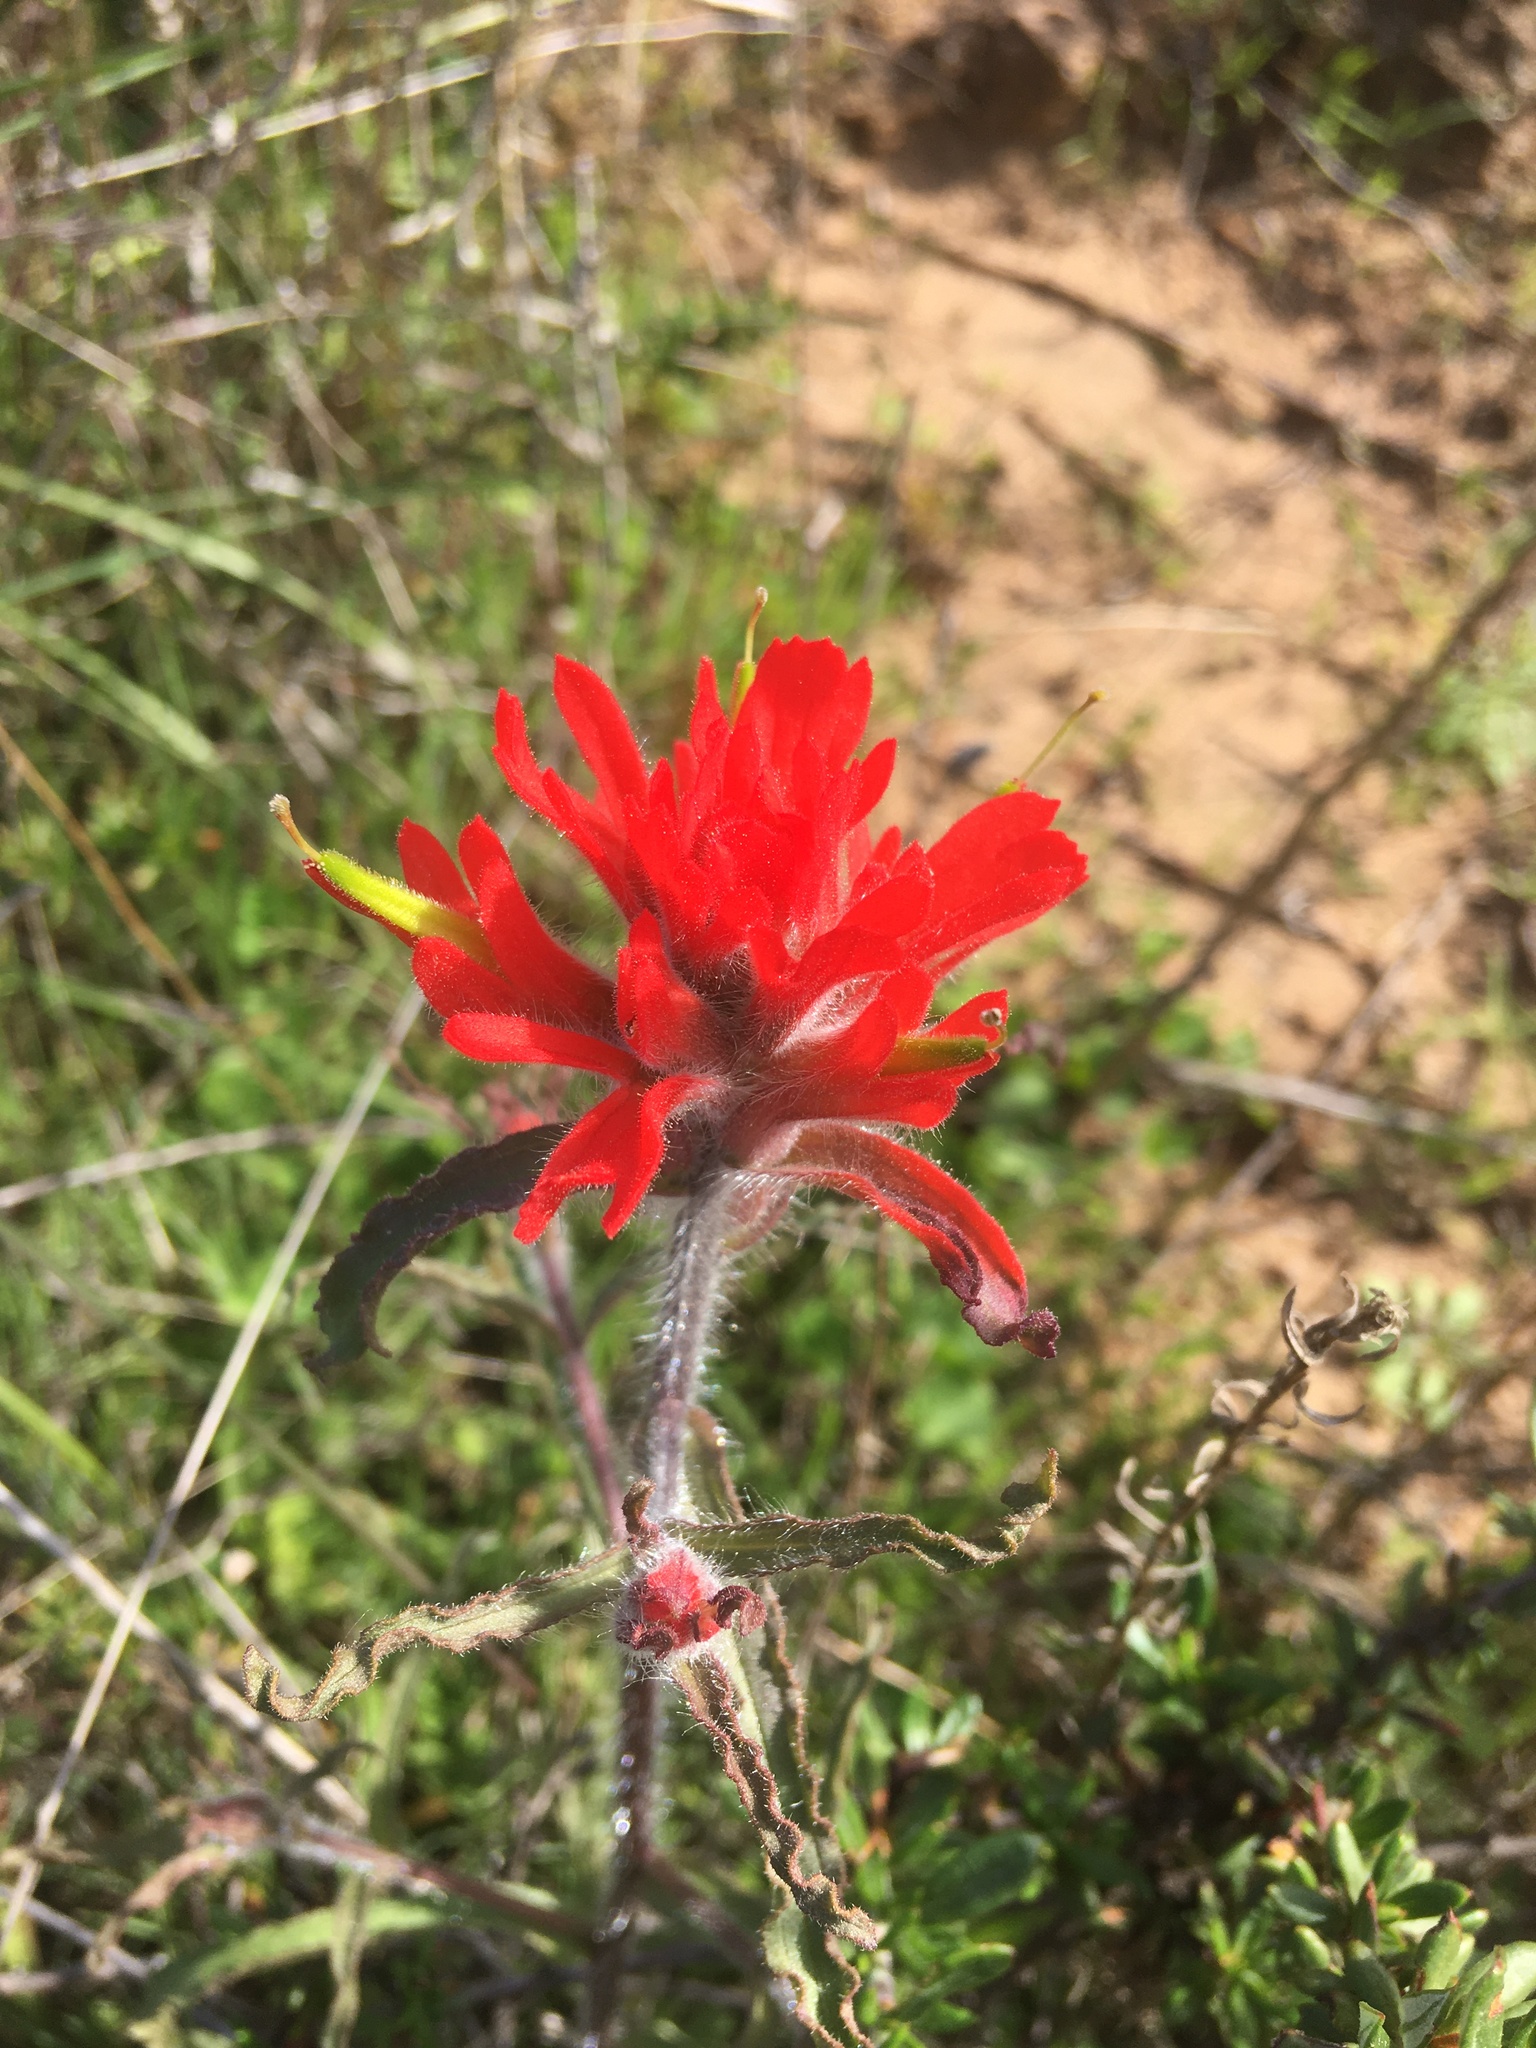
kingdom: Plantae
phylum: Tracheophyta
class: Magnoliopsida
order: Lamiales
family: Orobanchaceae
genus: Castilleja
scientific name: Castilleja affinis
